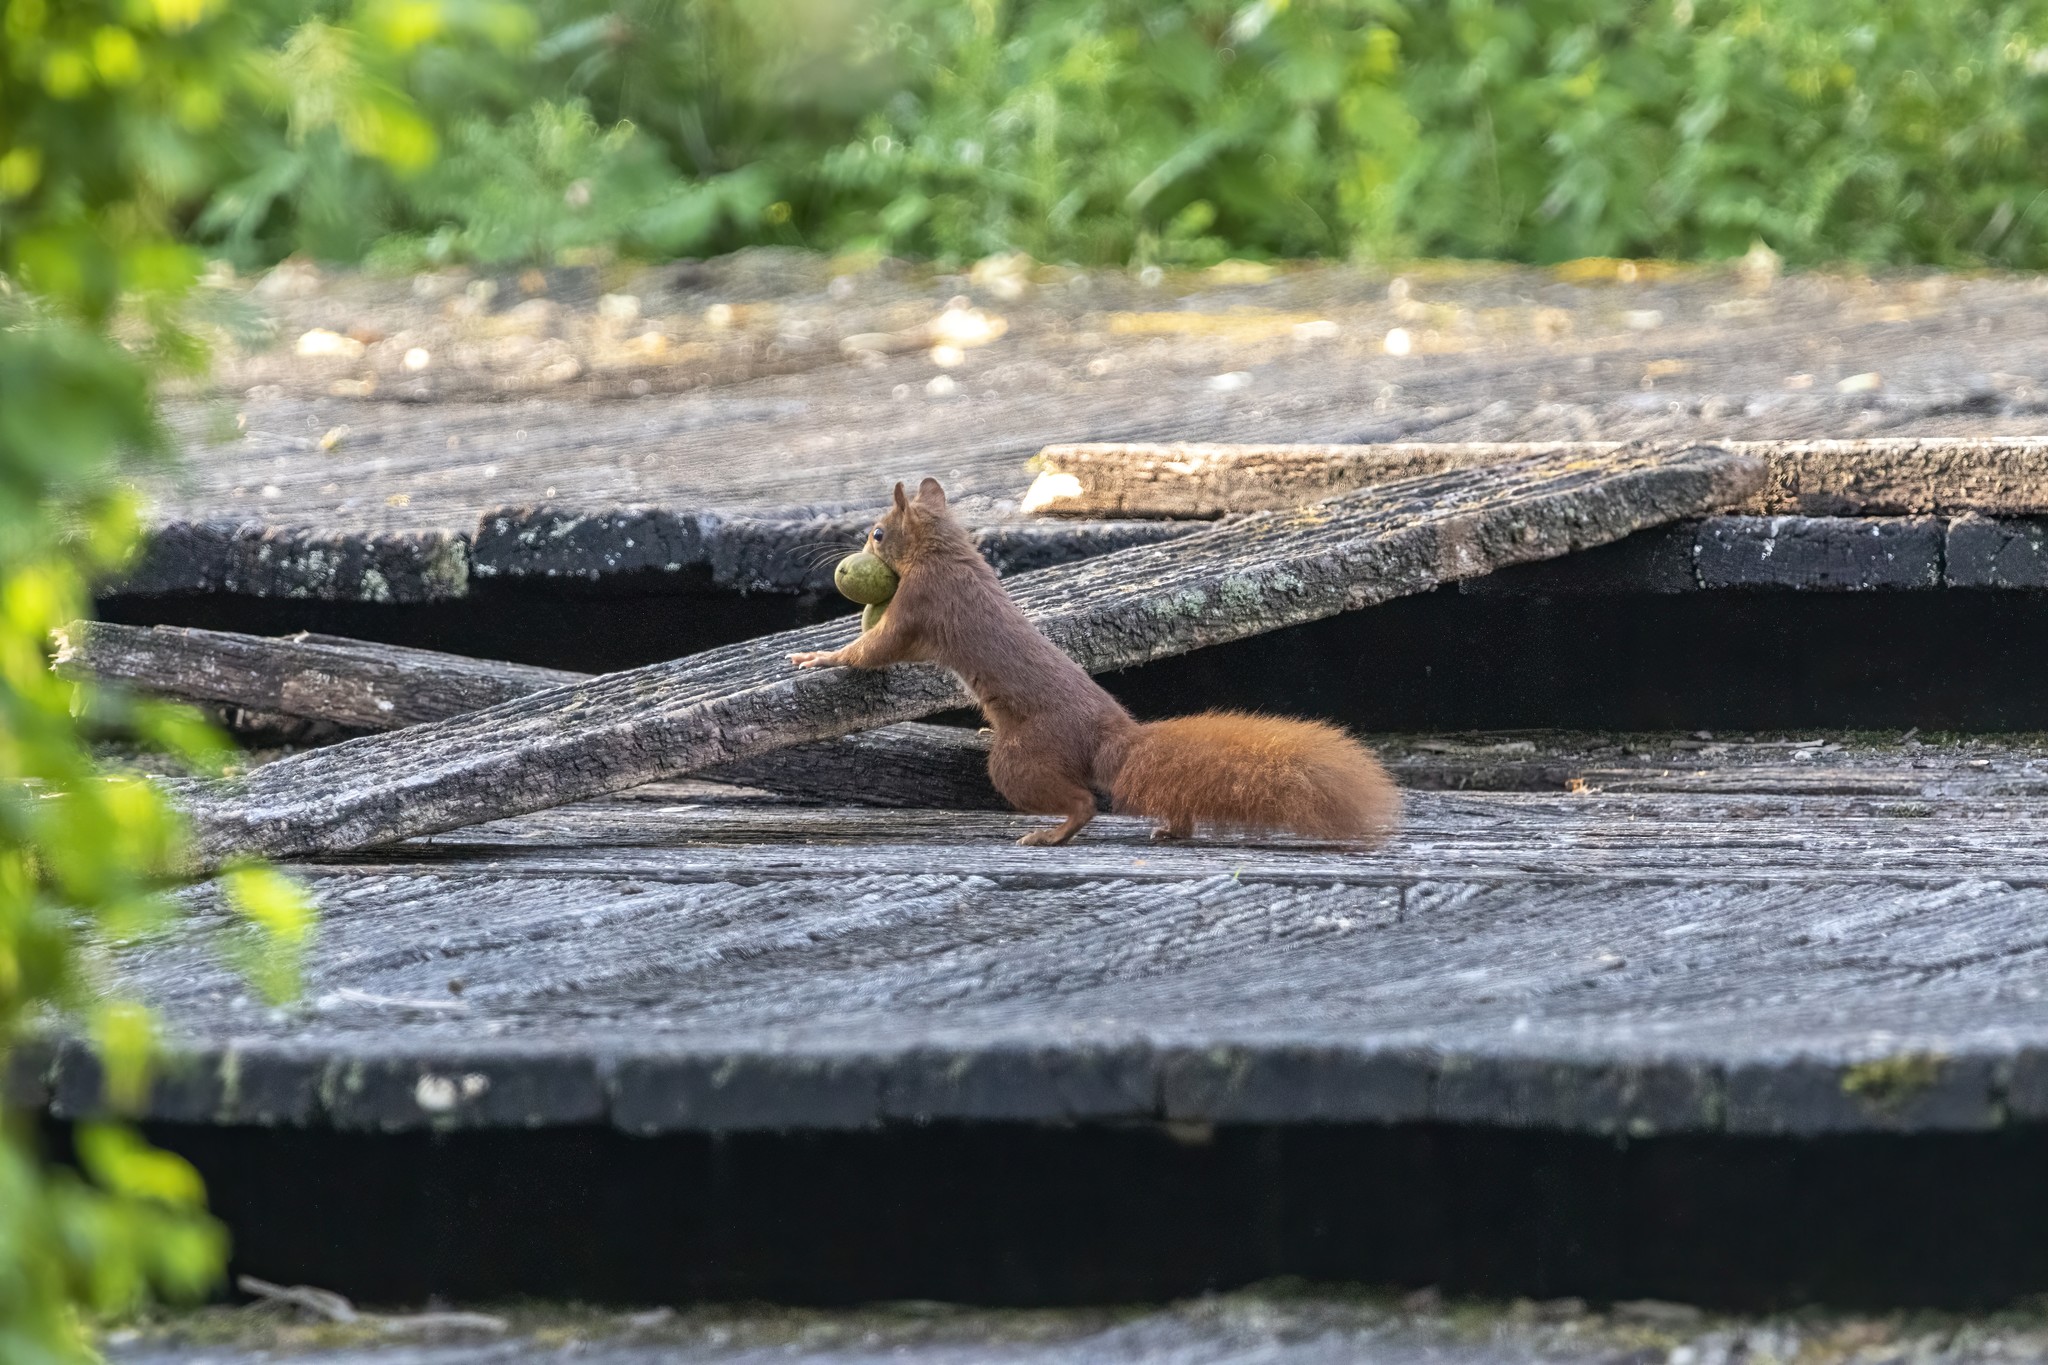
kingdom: Animalia
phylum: Chordata
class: Mammalia
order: Rodentia
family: Sciuridae
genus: Sciurus
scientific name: Sciurus vulgaris
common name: Eurasian red squirrel
